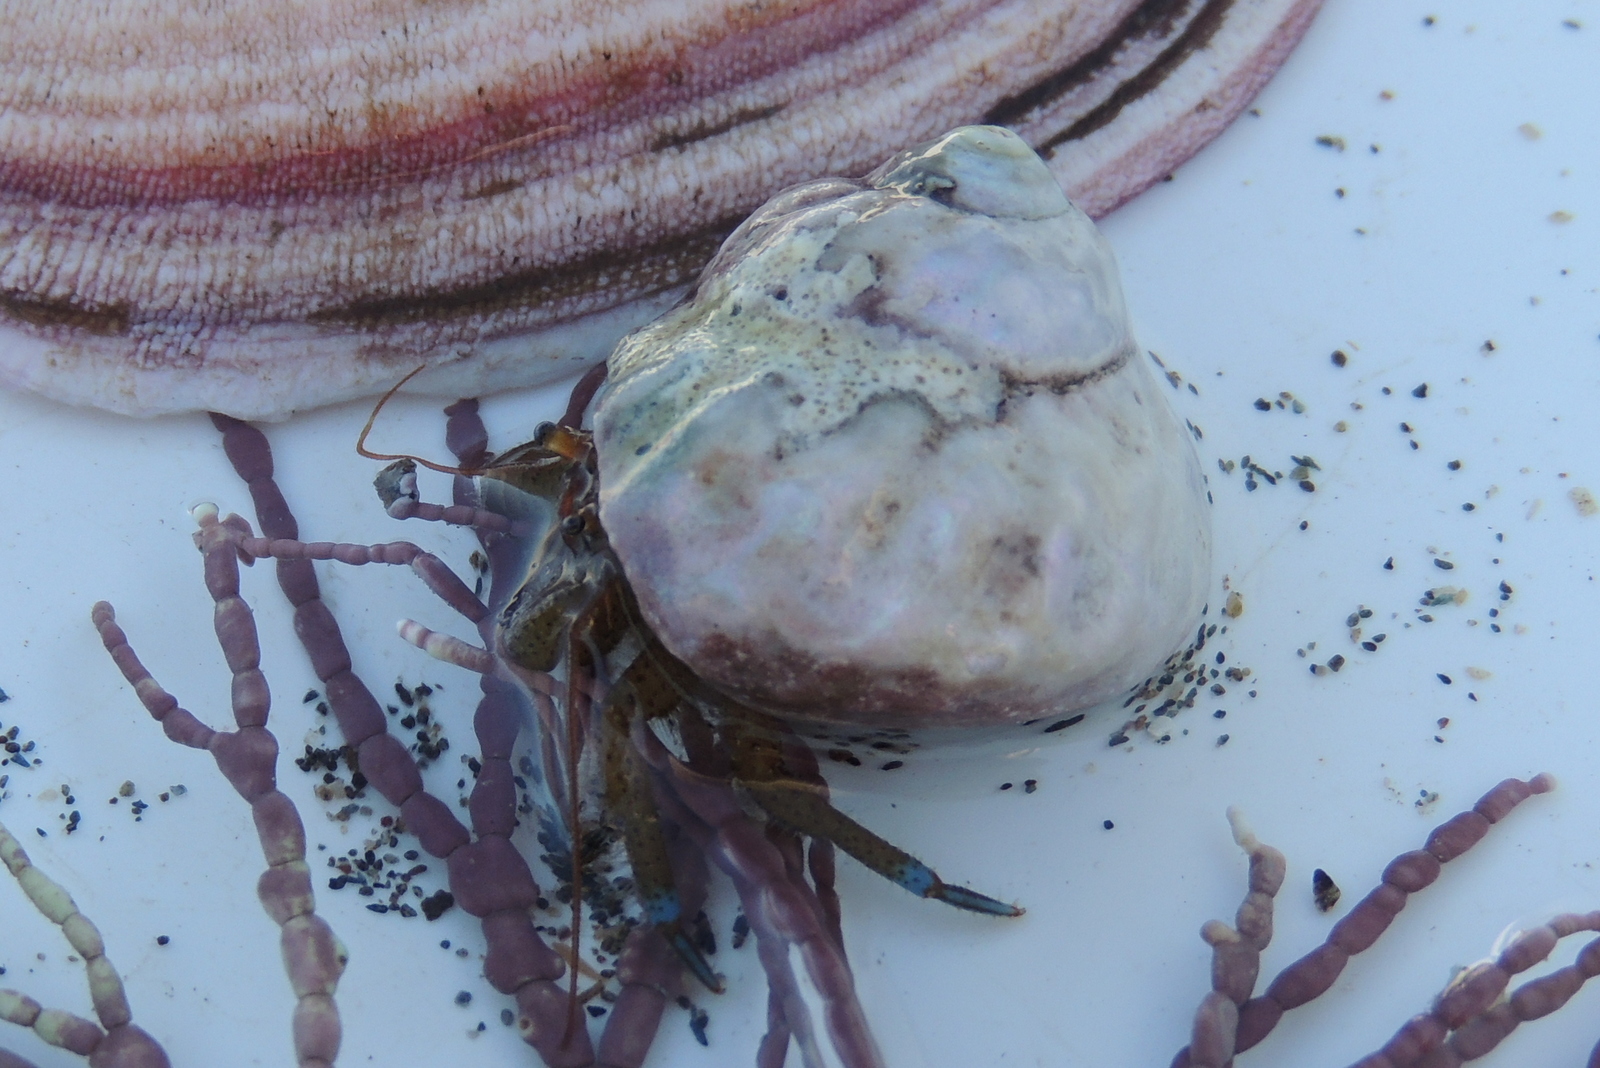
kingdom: Animalia
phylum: Arthropoda
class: Malacostraca
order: Decapoda
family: Paguridae
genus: Pagurus
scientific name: Pagurus samuelis
